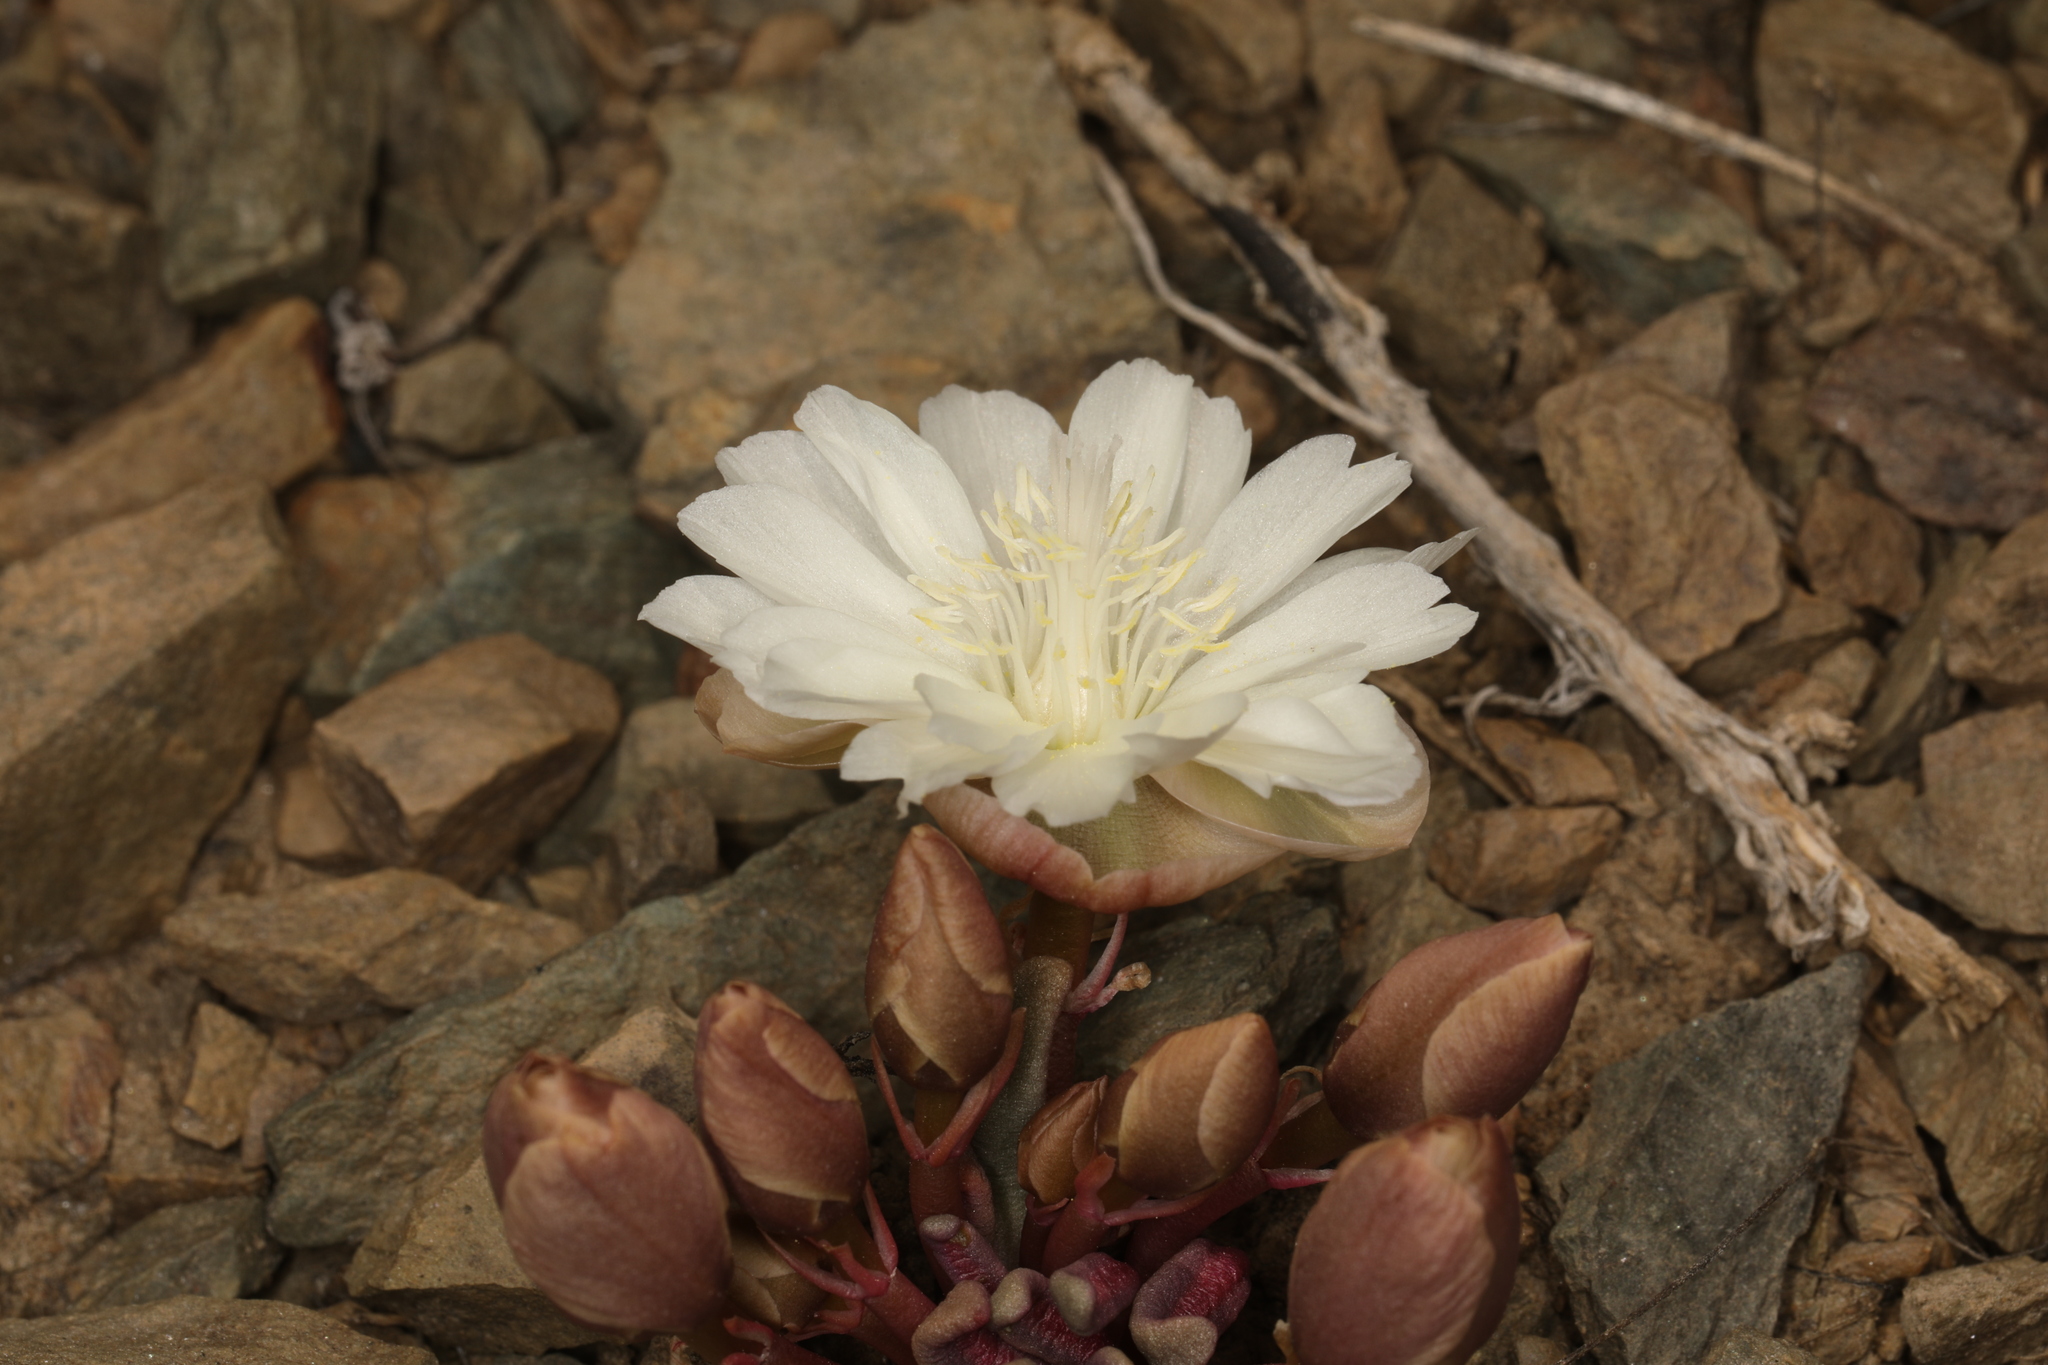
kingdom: Plantae
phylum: Tracheophyta
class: Magnoliopsida
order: Caryophyllales
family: Montiaceae
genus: Lewisia
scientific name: Lewisia rediviva
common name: Bitter-root
